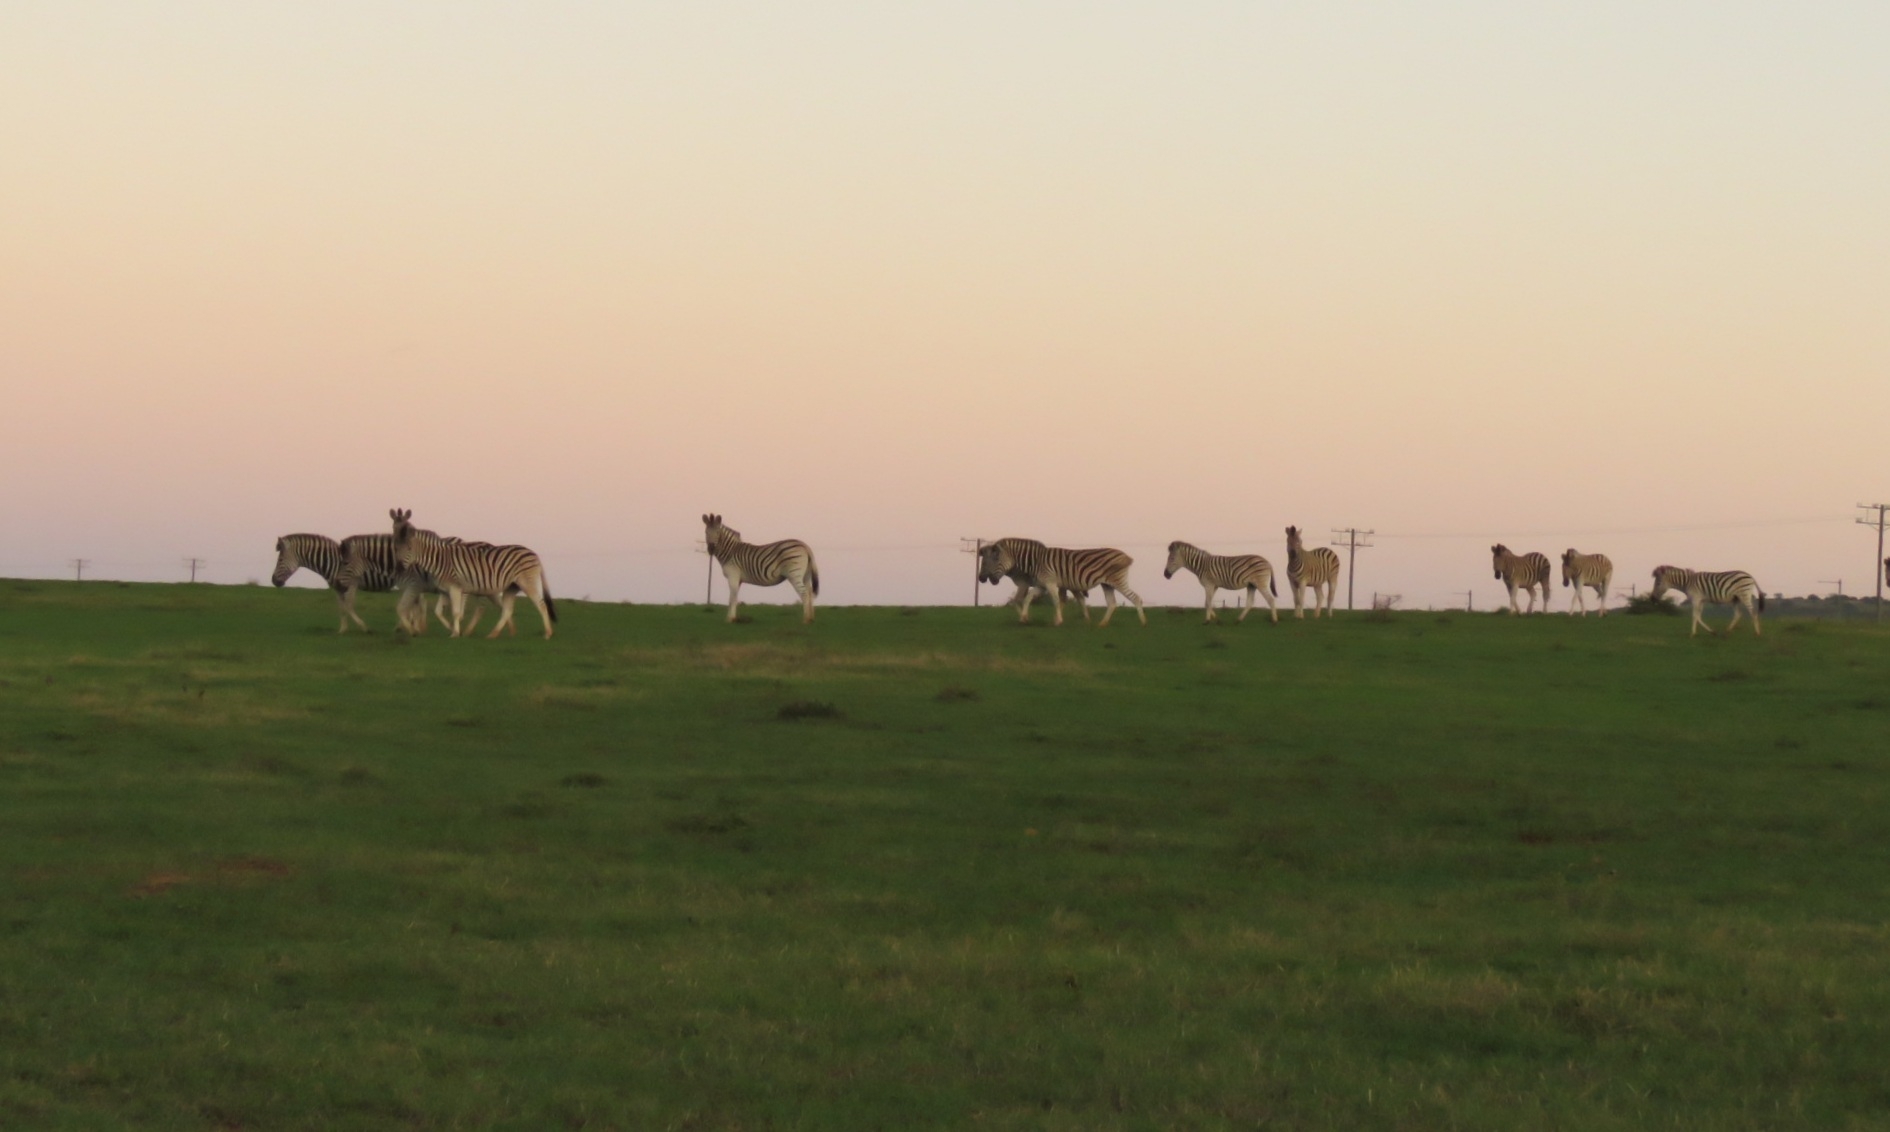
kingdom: Animalia
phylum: Chordata
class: Mammalia
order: Perissodactyla
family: Equidae
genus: Equus
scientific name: Equus quagga
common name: Plains zebra
